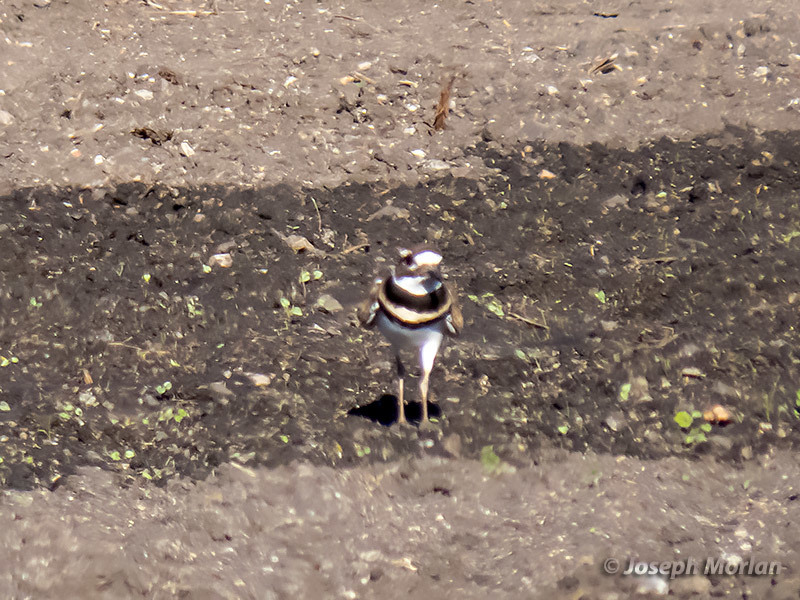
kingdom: Animalia
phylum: Chordata
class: Aves
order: Charadriiformes
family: Charadriidae
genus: Charadrius
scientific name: Charadrius vociferus
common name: Killdeer
